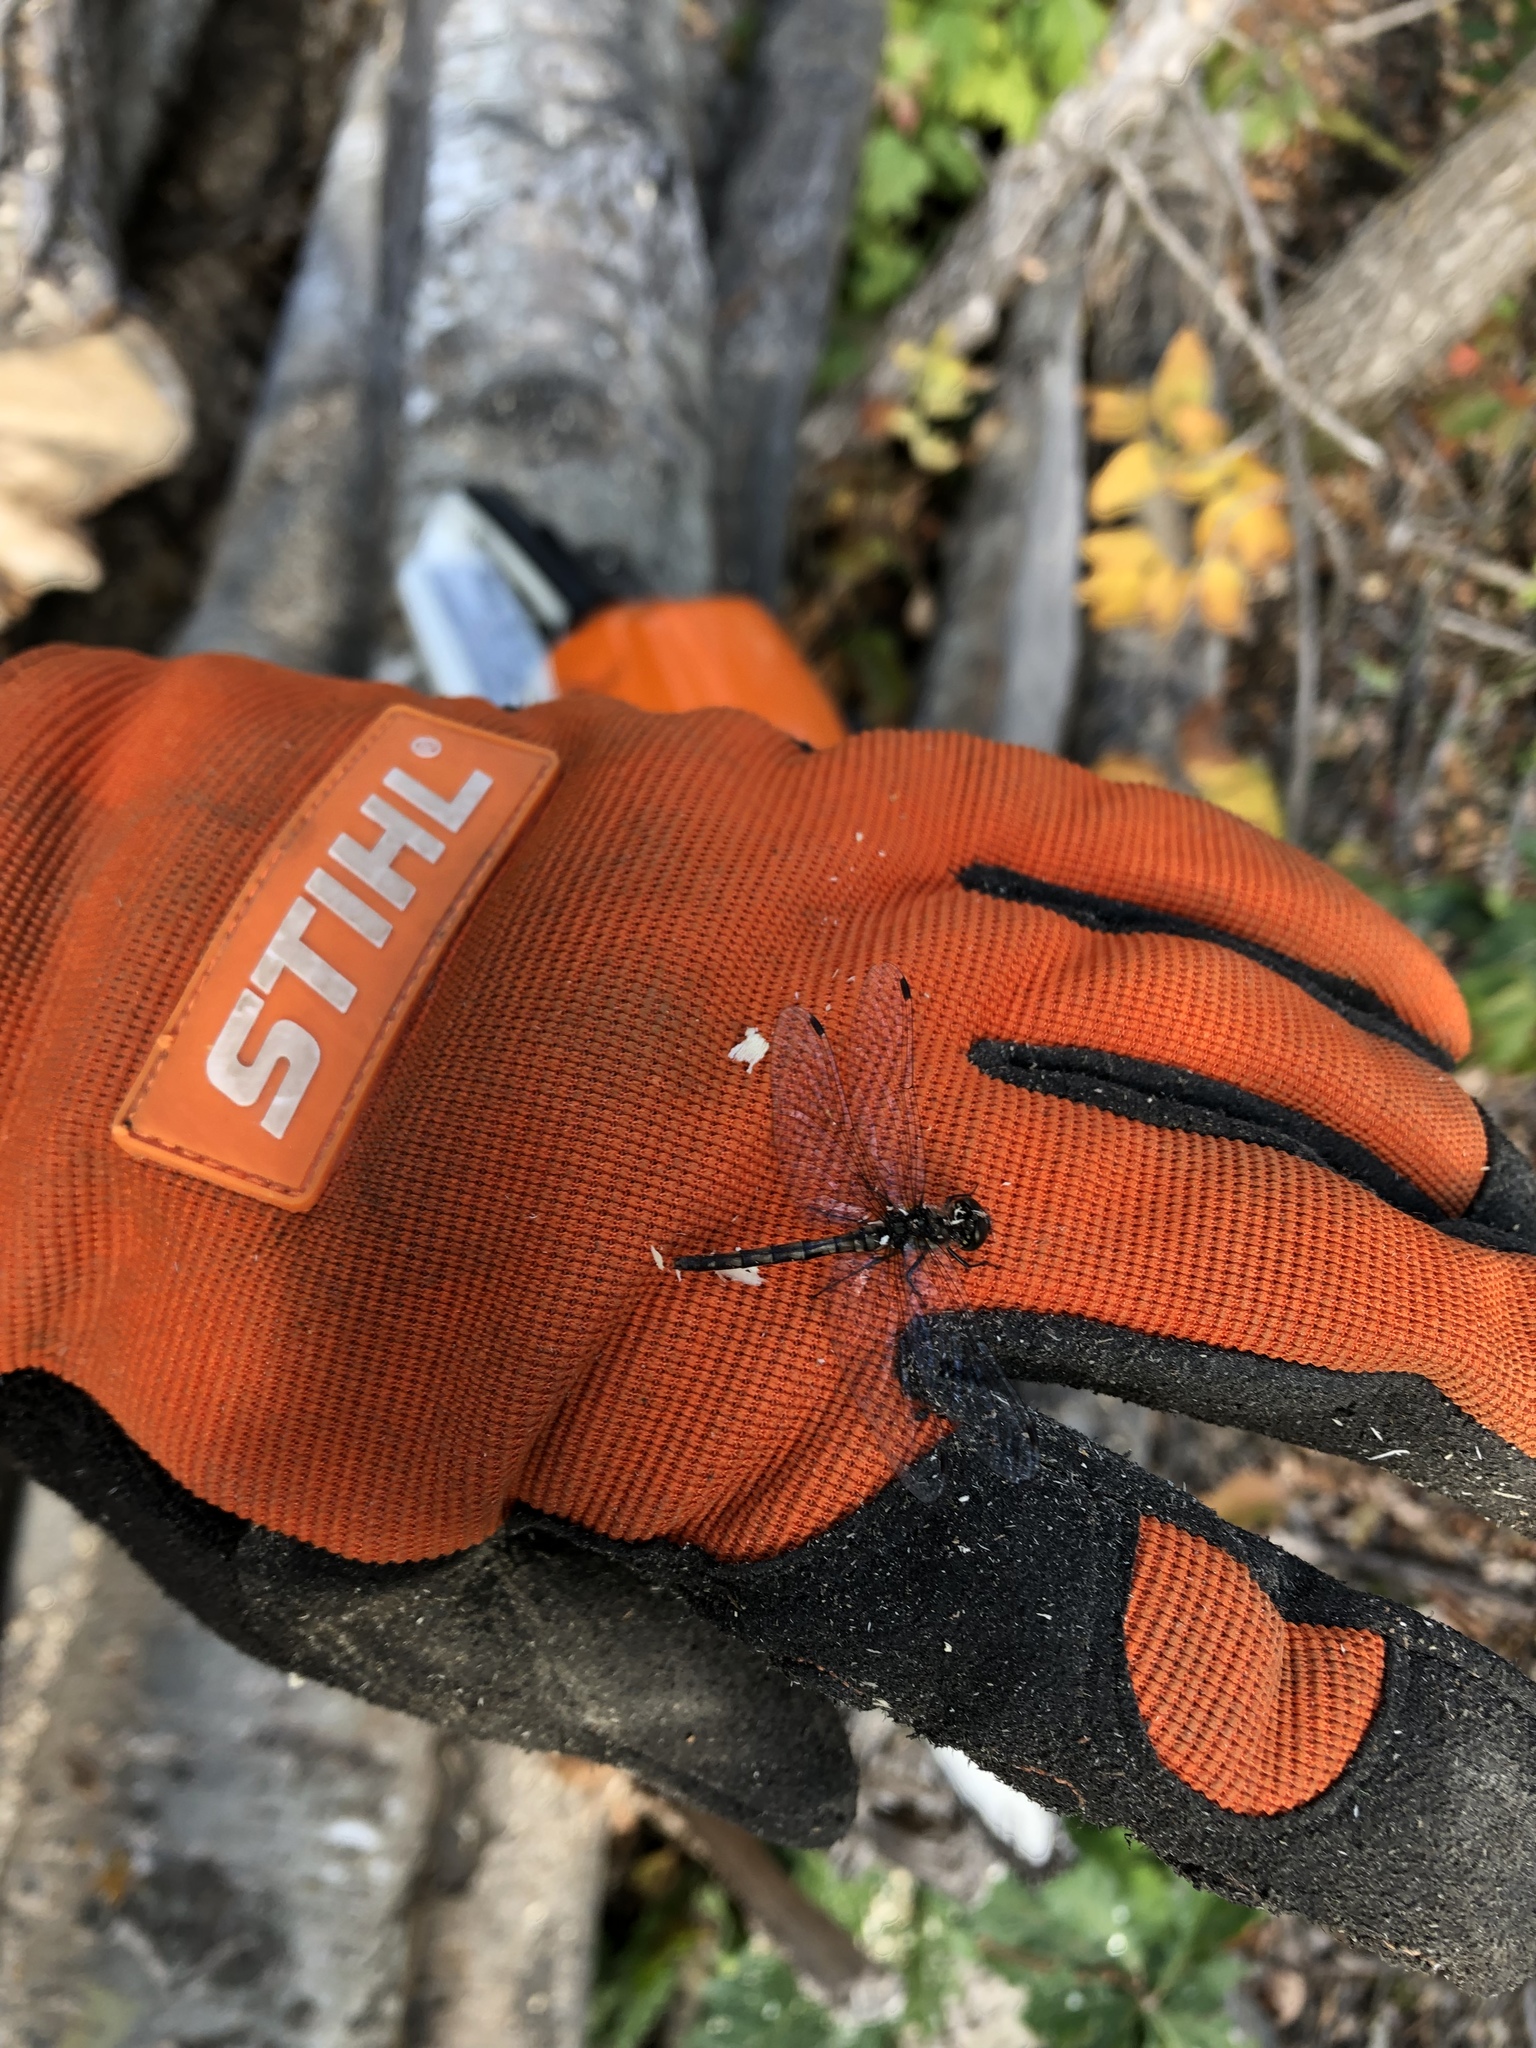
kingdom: Animalia
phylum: Arthropoda
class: Insecta
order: Odonata
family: Libellulidae
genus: Sympetrum
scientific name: Sympetrum danae
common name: Black darter
